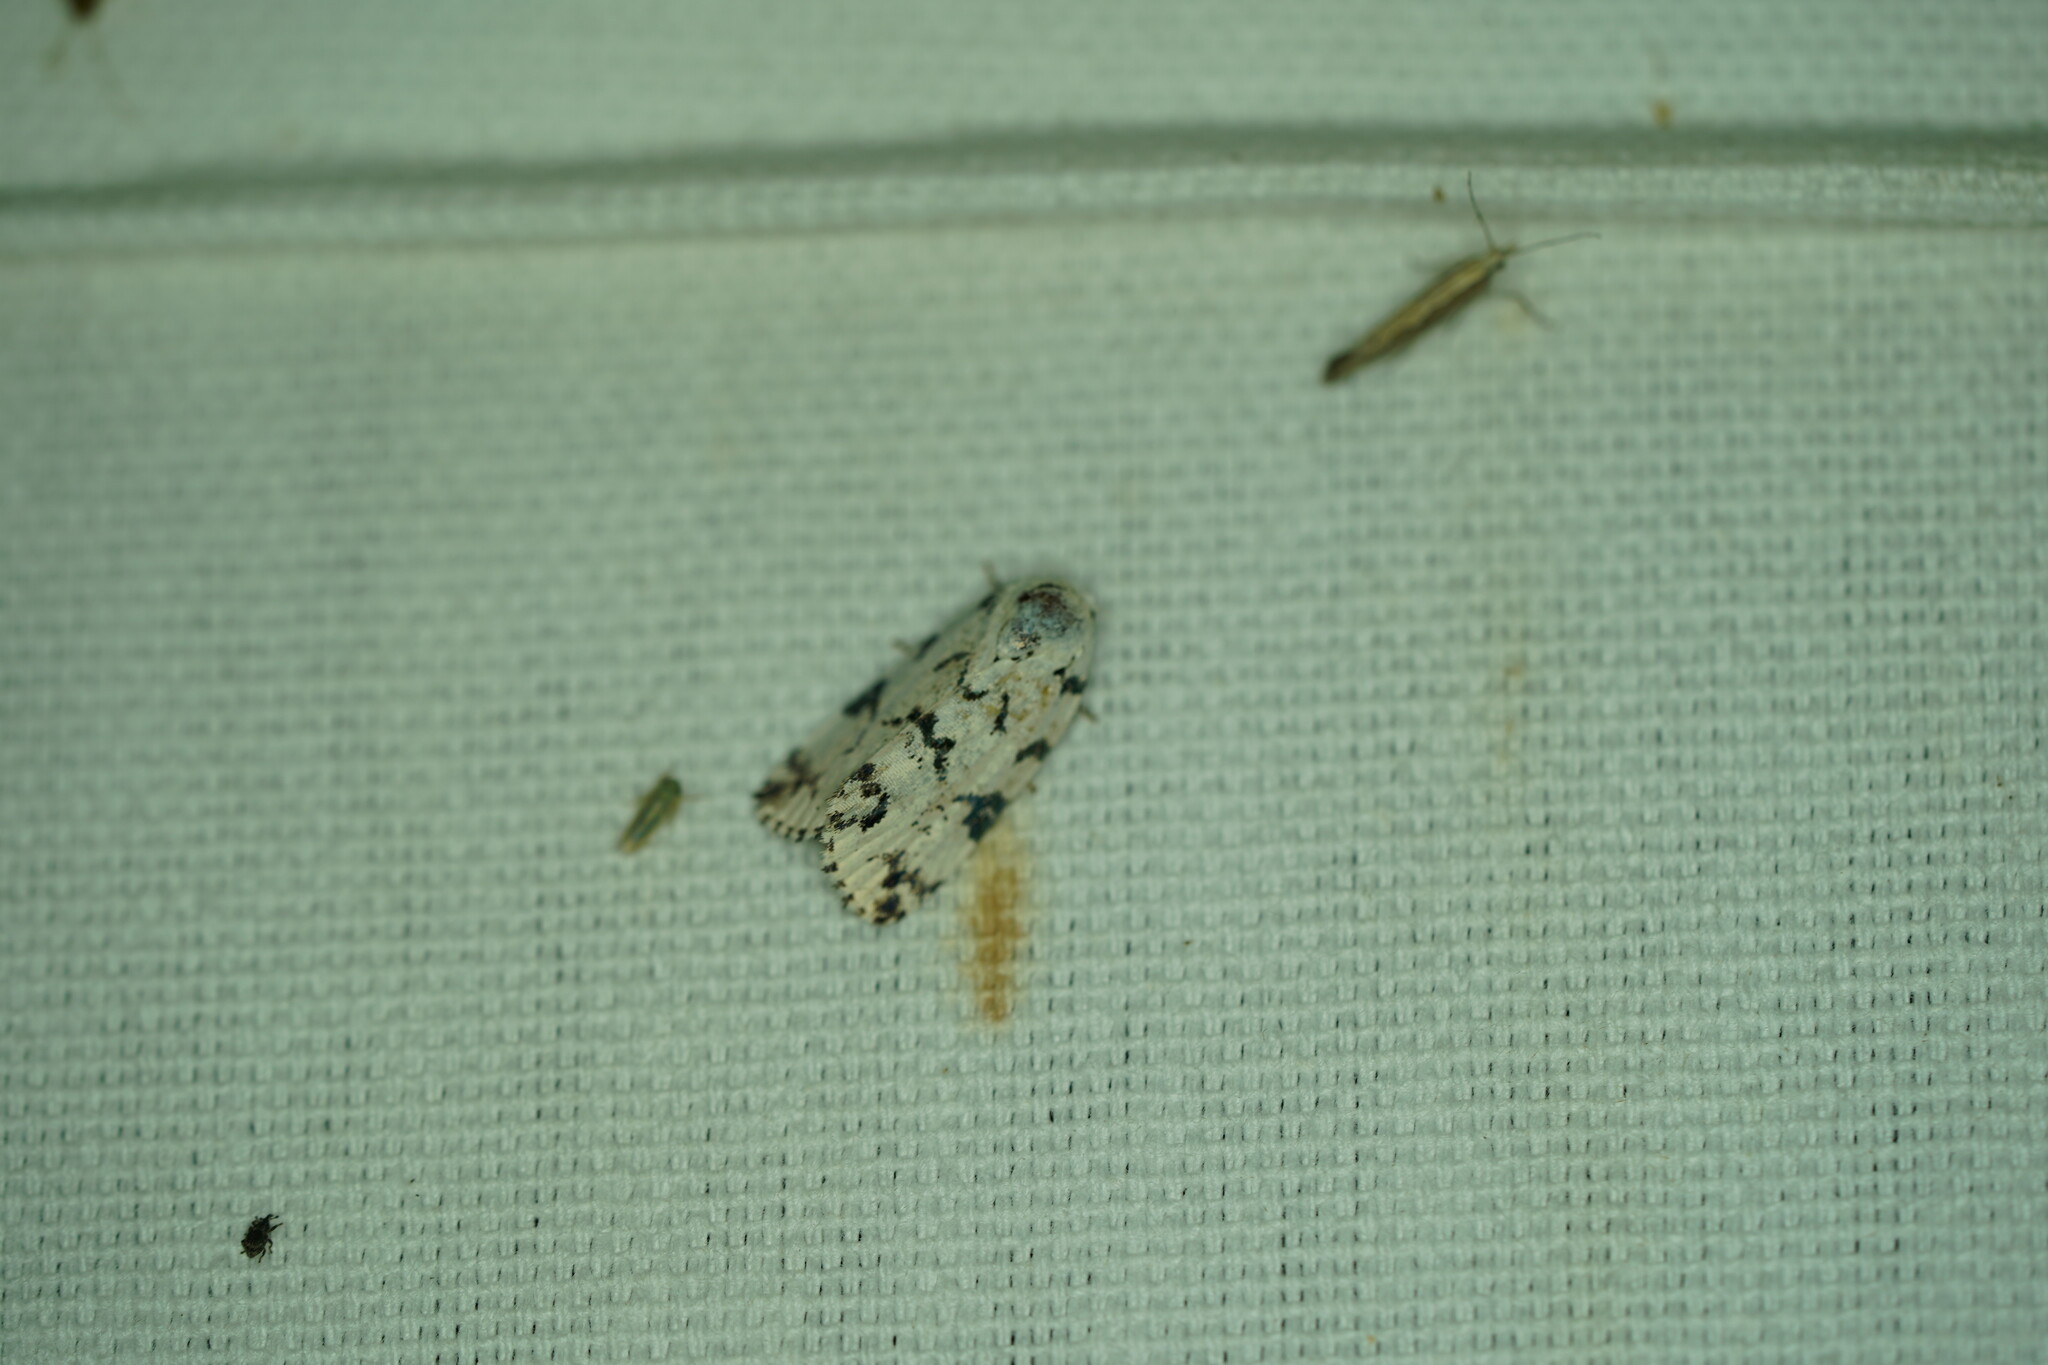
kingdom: Animalia
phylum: Arthropoda
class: Insecta
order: Lepidoptera
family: Noctuidae
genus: Polygrammate
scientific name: Polygrammate hebraeicum
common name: Hebrew moth
